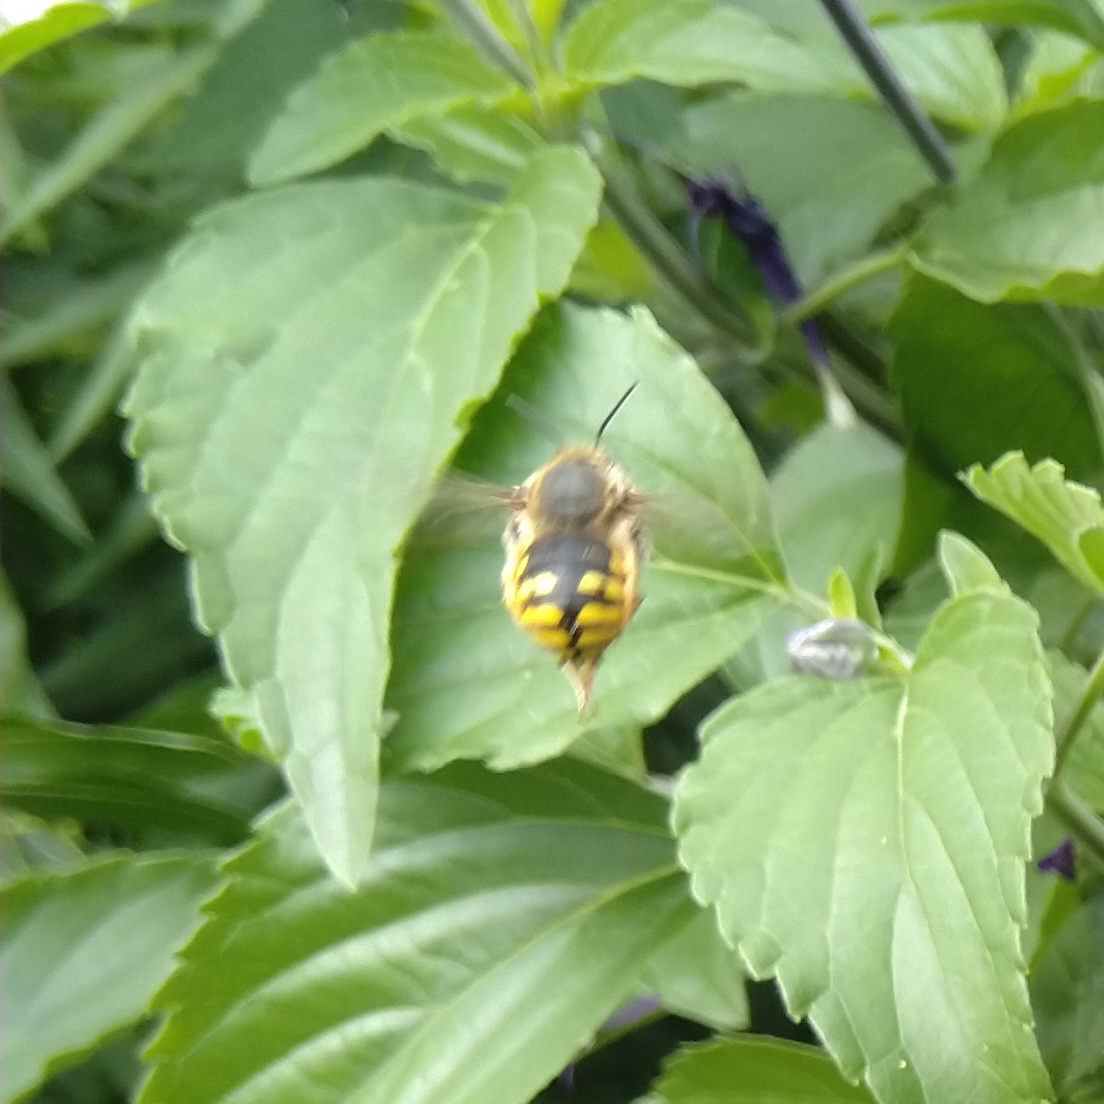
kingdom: Animalia
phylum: Arthropoda
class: Insecta
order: Hymenoptera
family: Megachilidae
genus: Anthidium
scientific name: Anthidium manicatum
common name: Wool carder bee
